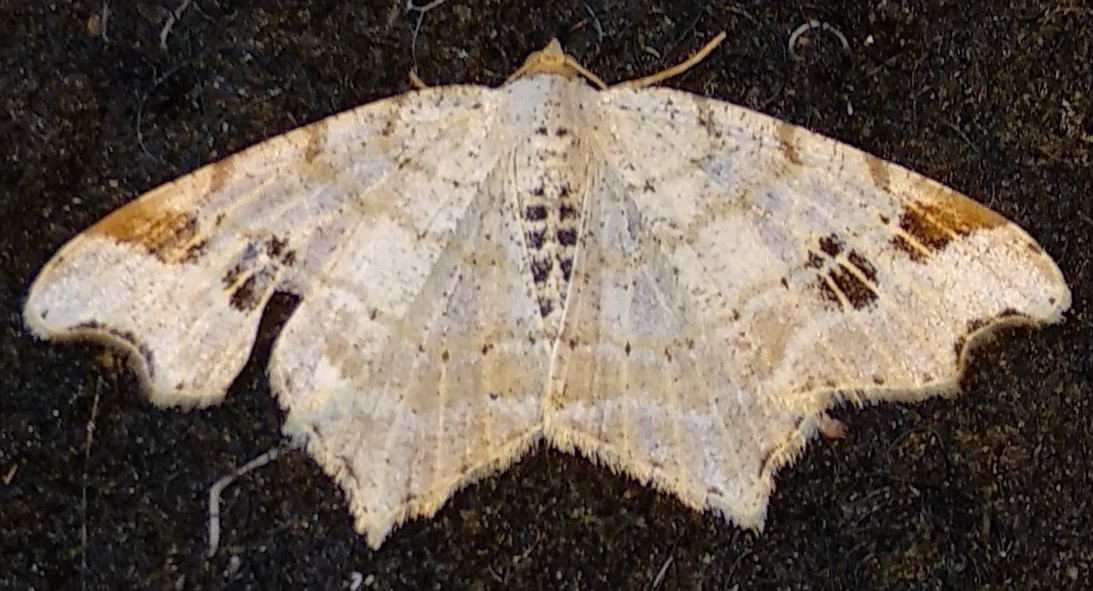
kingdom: Animalia
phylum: Arthropoda
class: Insecta
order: Lepidoptera
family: Geometridae
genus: Macaria
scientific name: Macaria aemulataria
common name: Common angle
